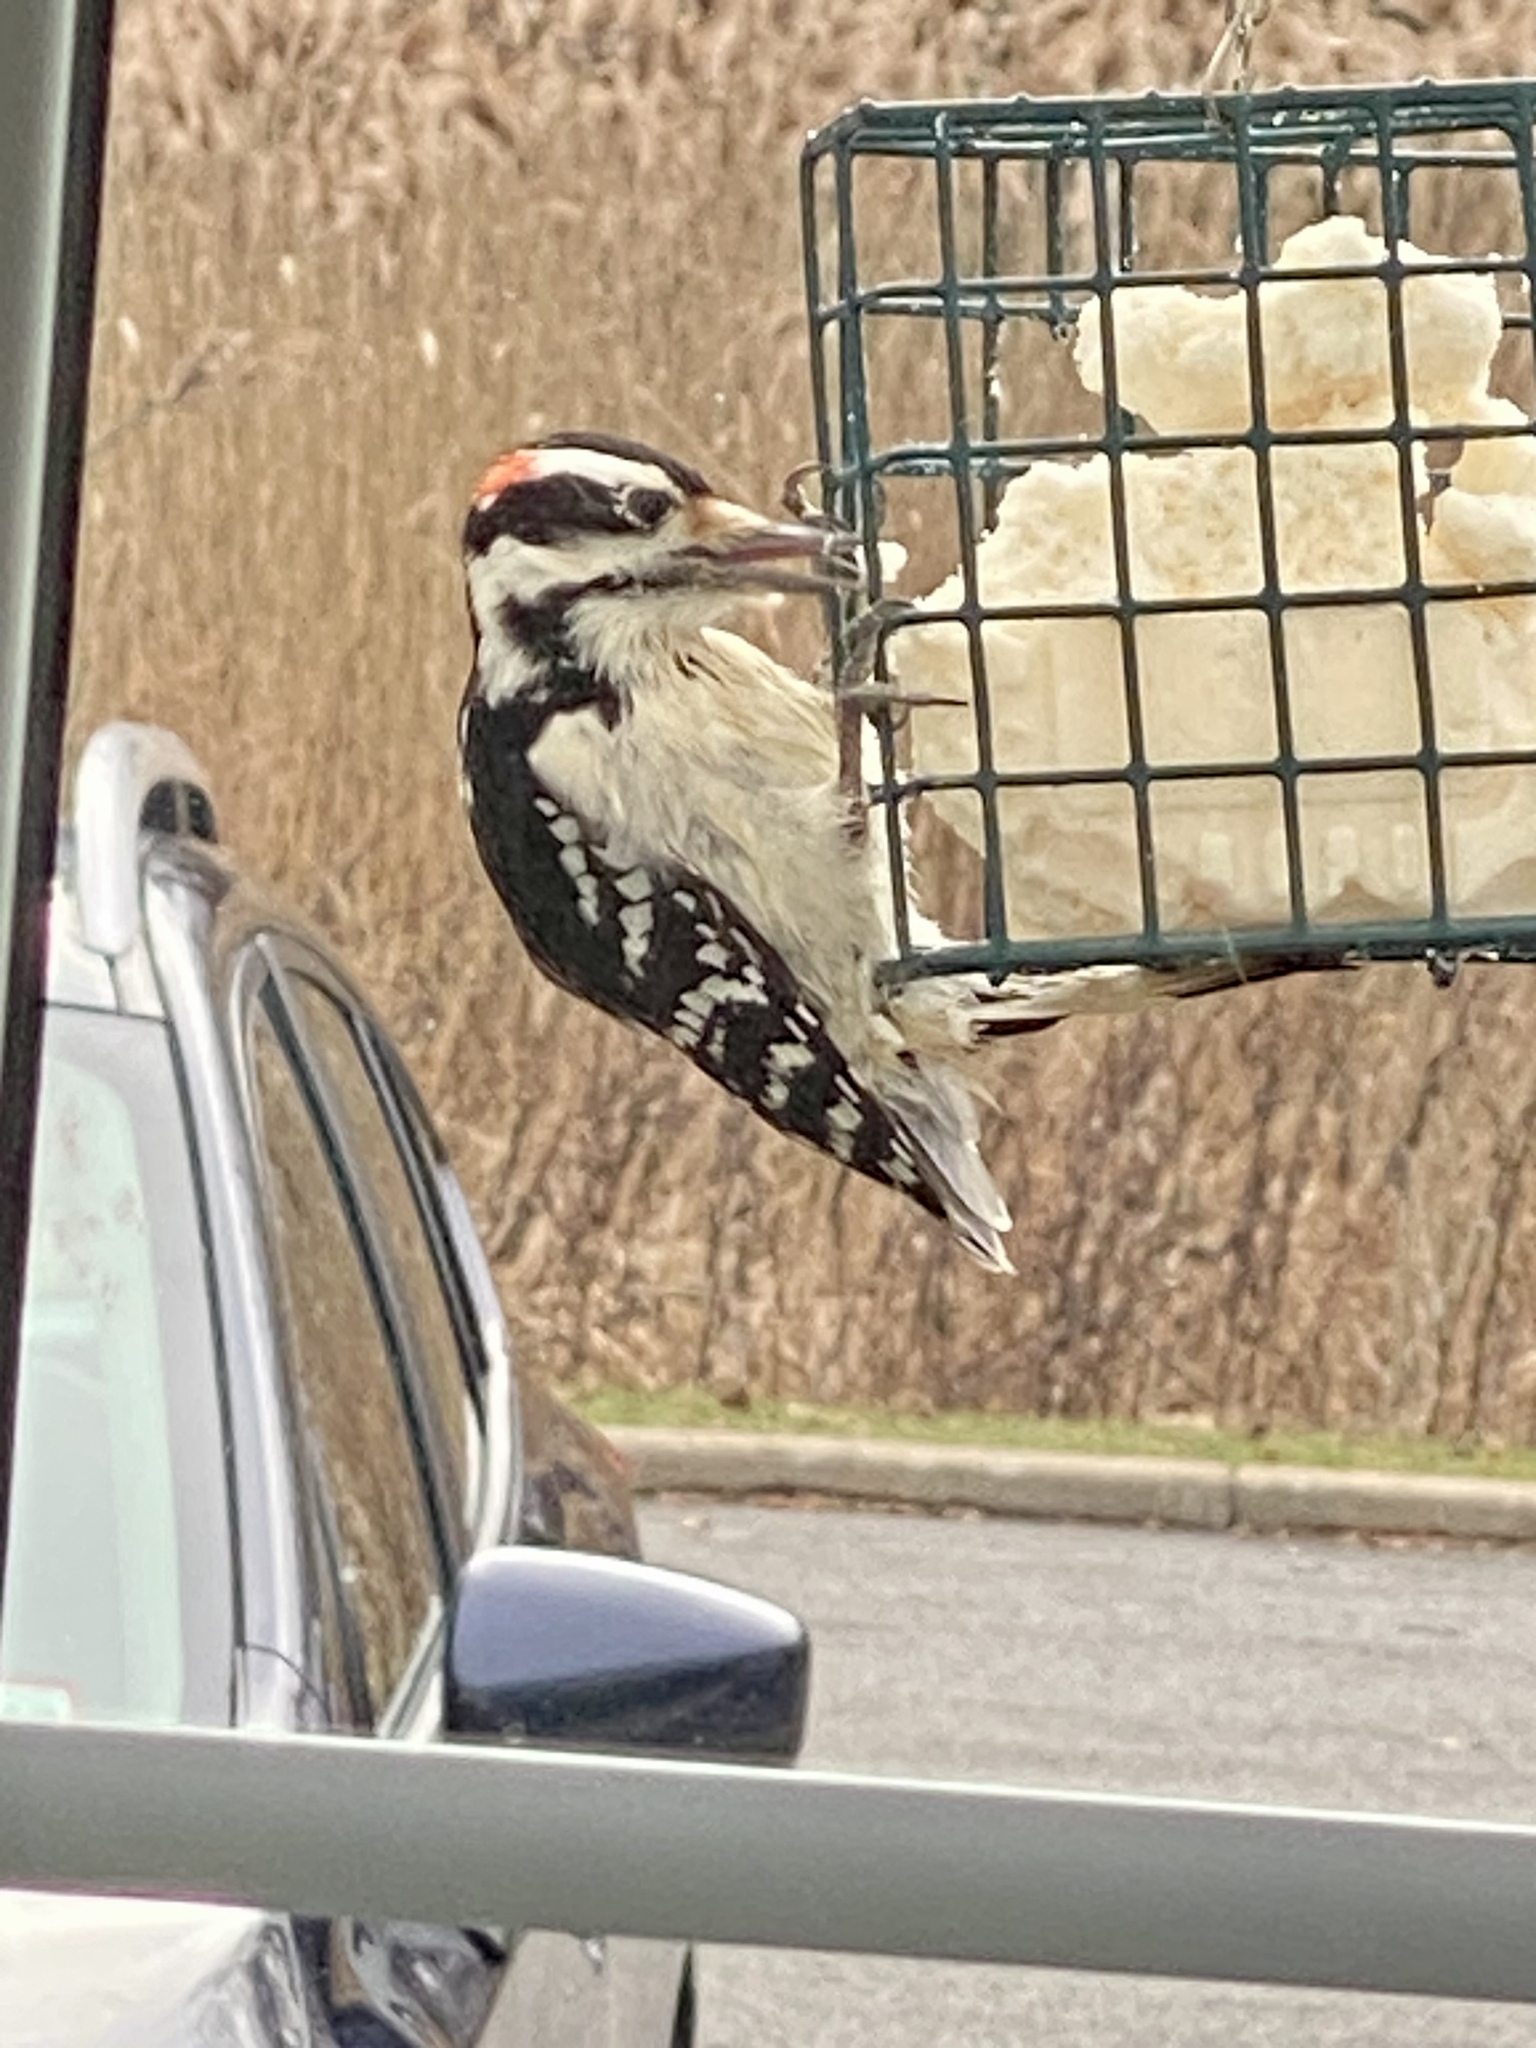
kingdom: Animalia
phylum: Chordata
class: Aves
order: Piciformes
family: Picidae
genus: Leuconotopicus
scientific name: Leuconotopicus villosus
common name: Hairy woodpecker
